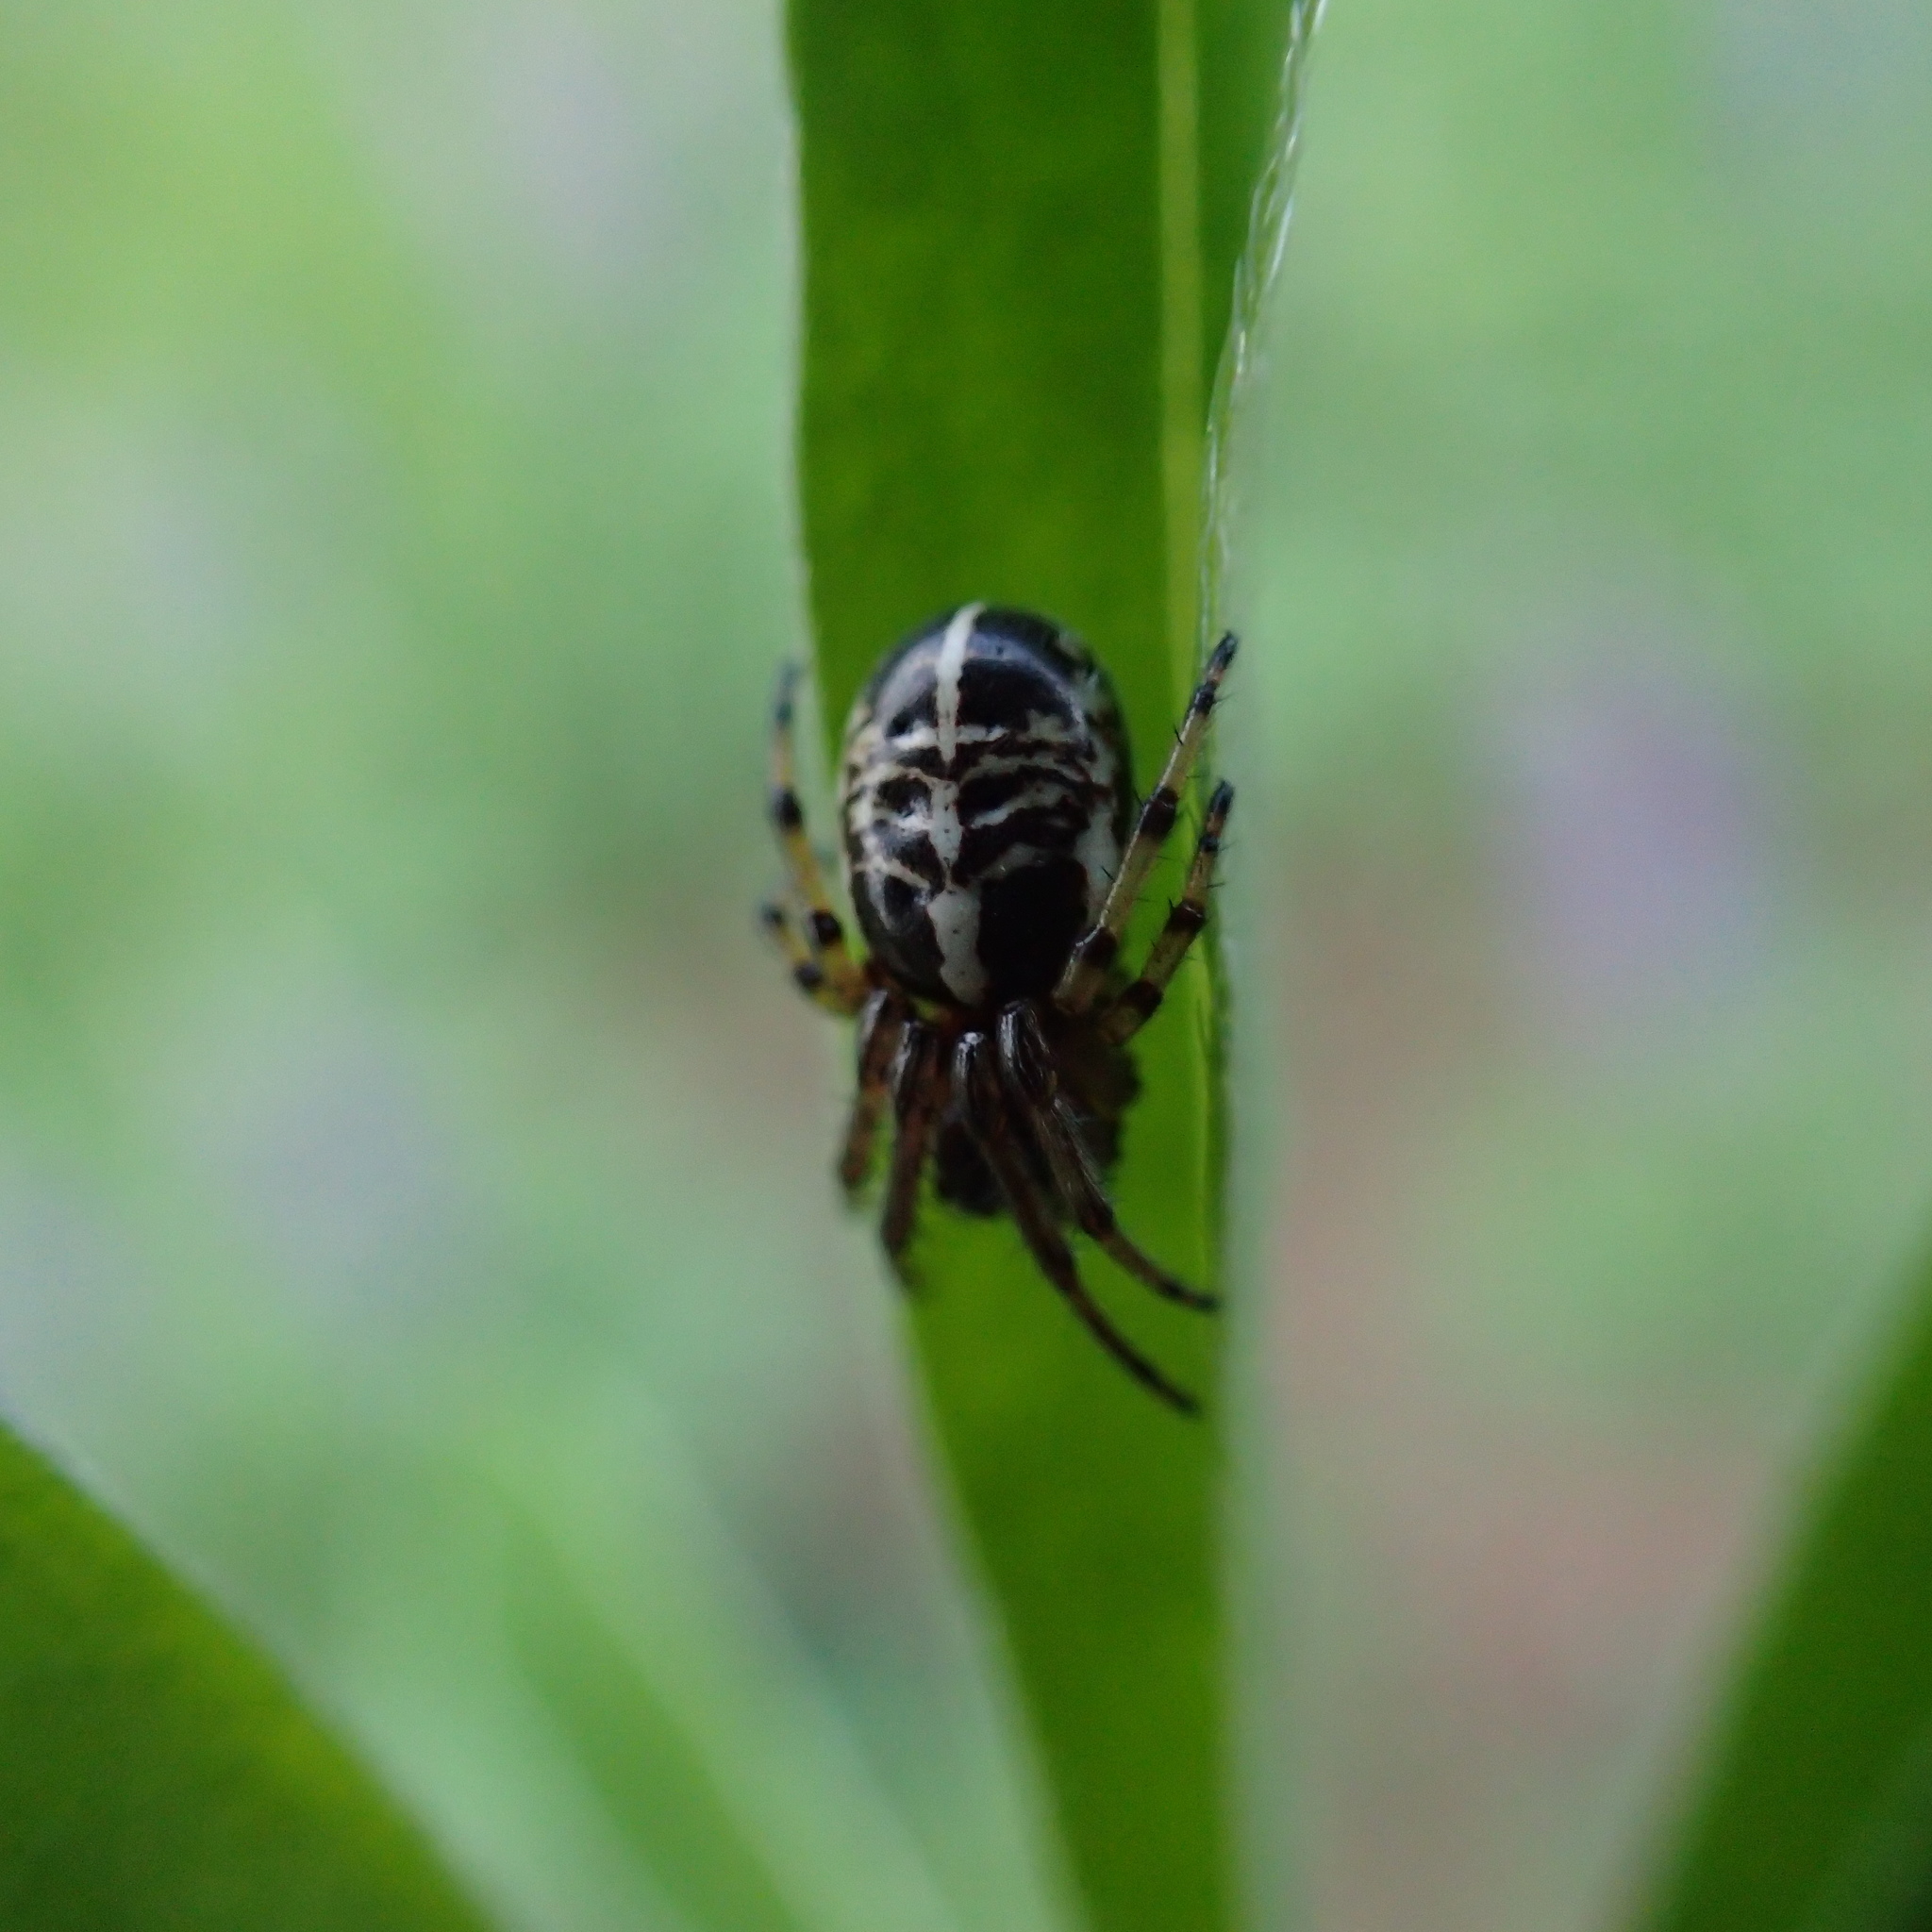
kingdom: Animalia
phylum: Arthropoda
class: Arachnida
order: Araneae
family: Araneidae
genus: Singa
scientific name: Singa hamata
